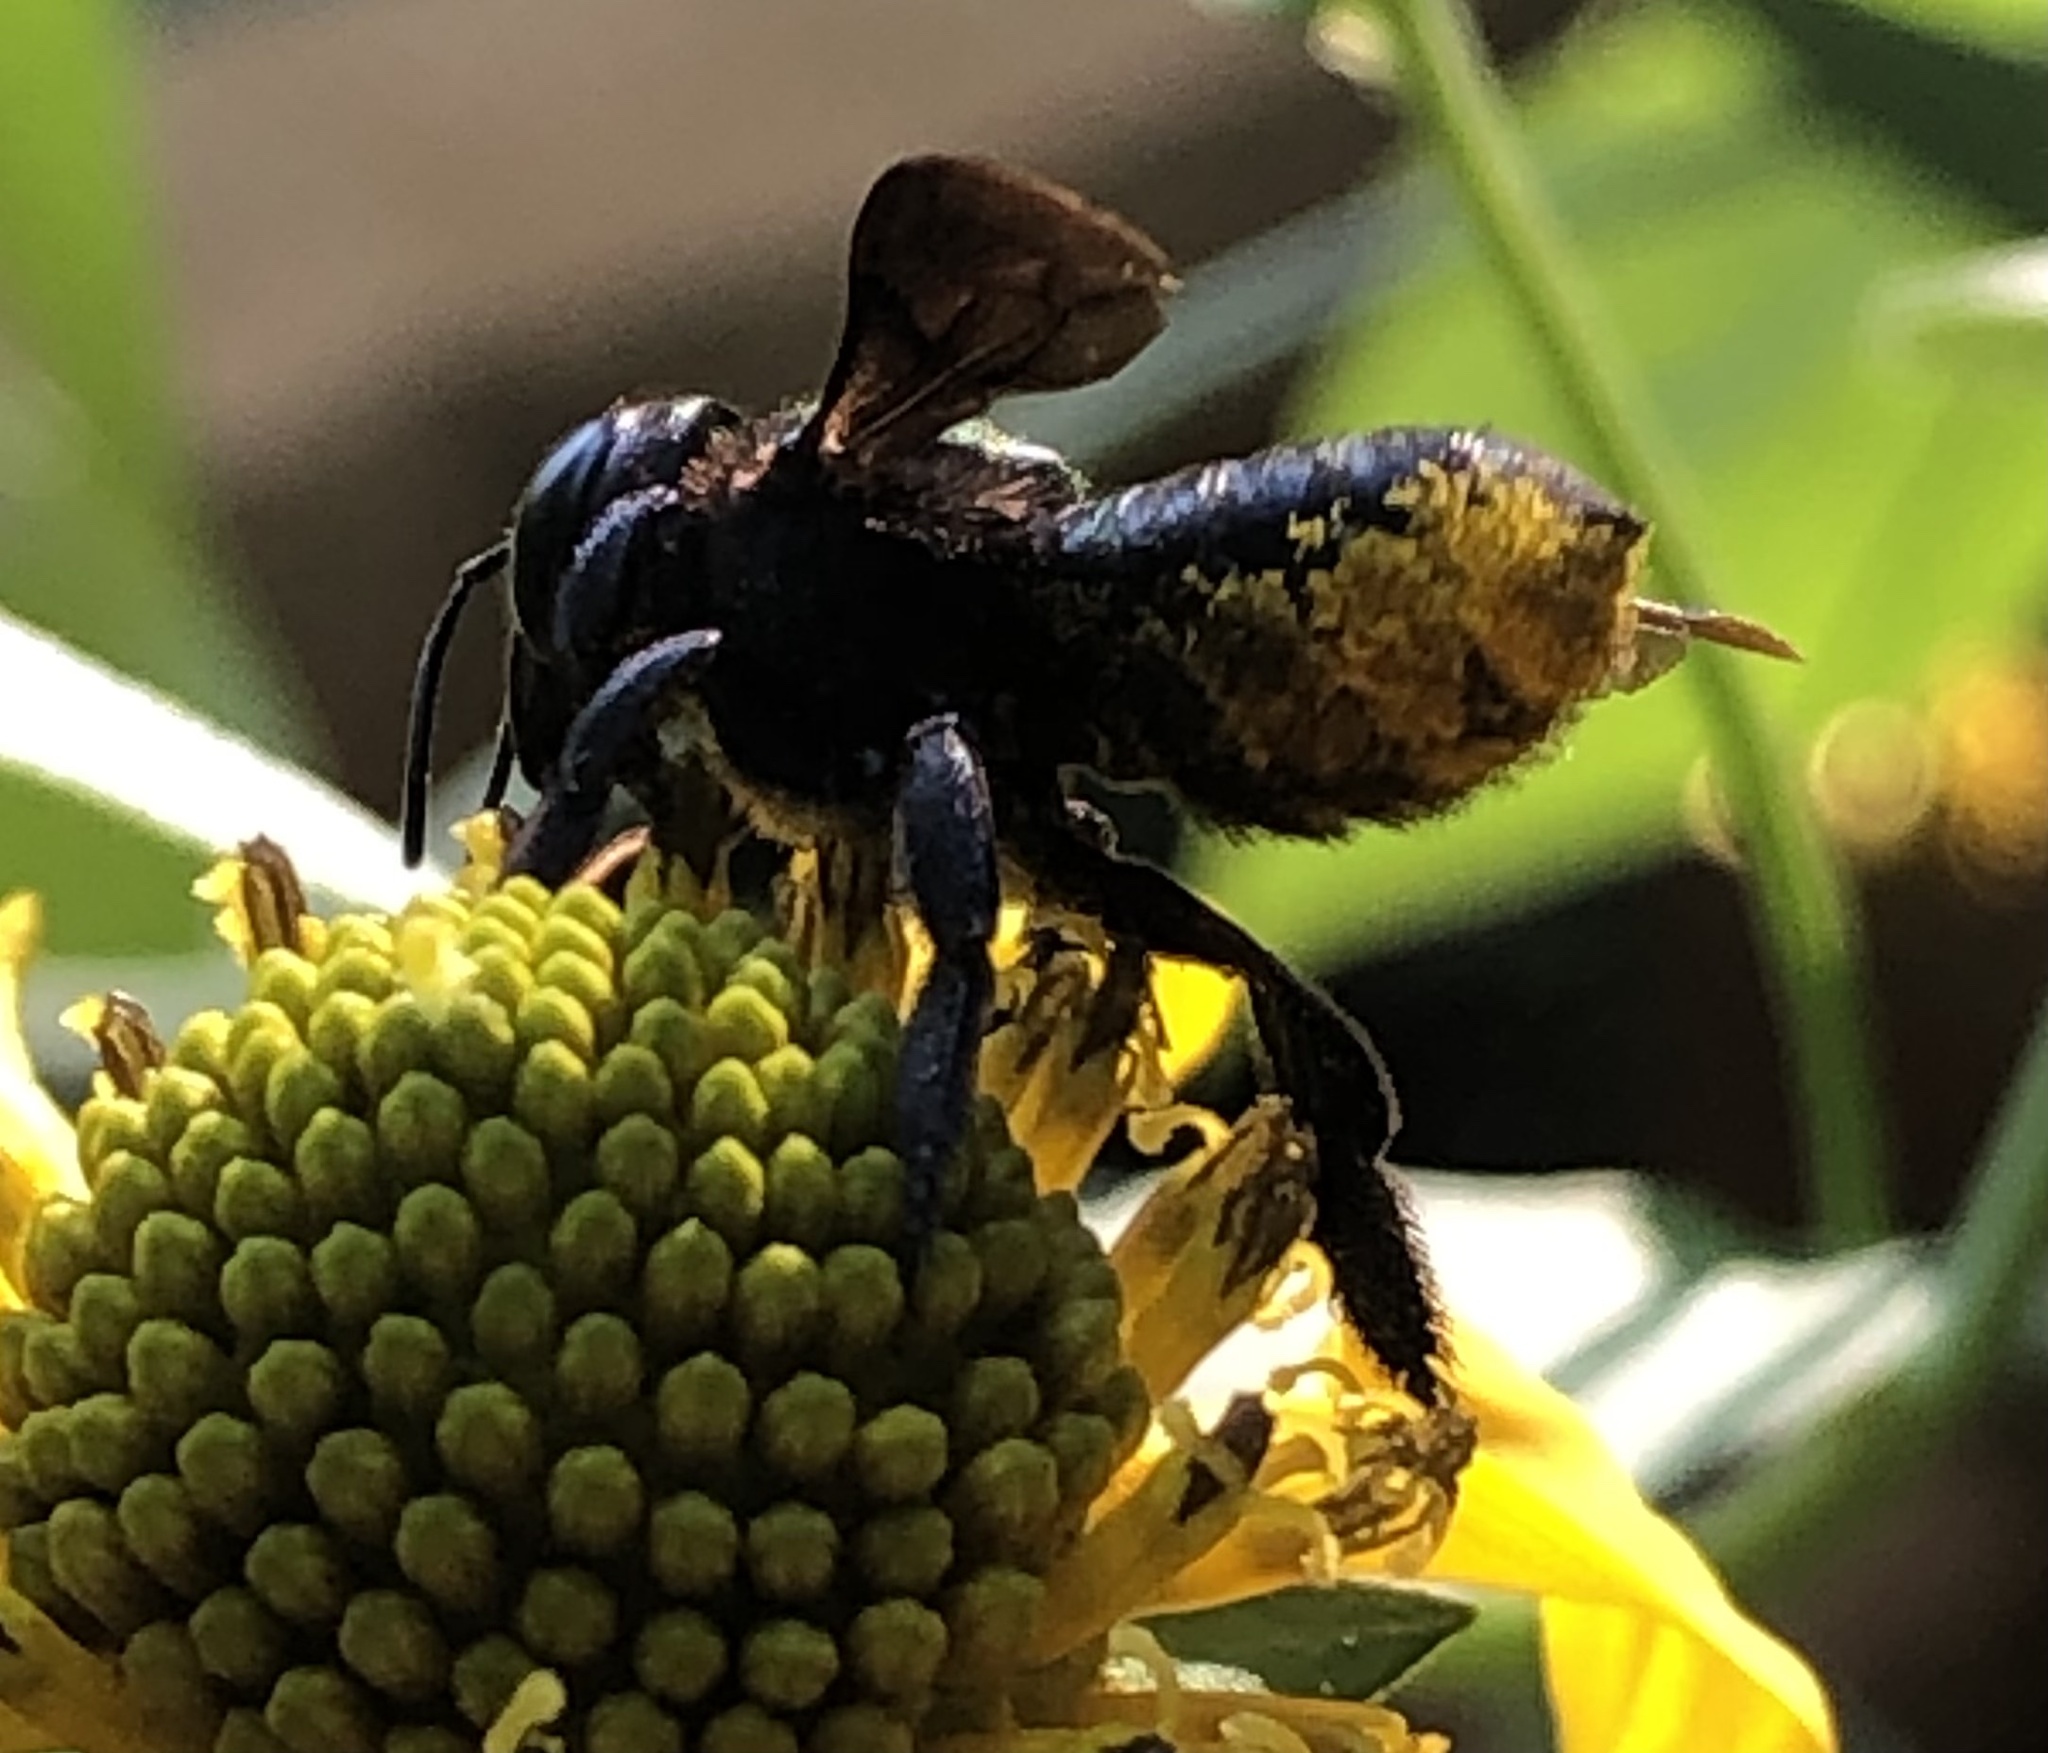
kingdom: Animalia
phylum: Arthropoda
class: Insecta
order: Hymenoptera
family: Megachilidae
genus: Megachile
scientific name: Megachile xylocopoides
